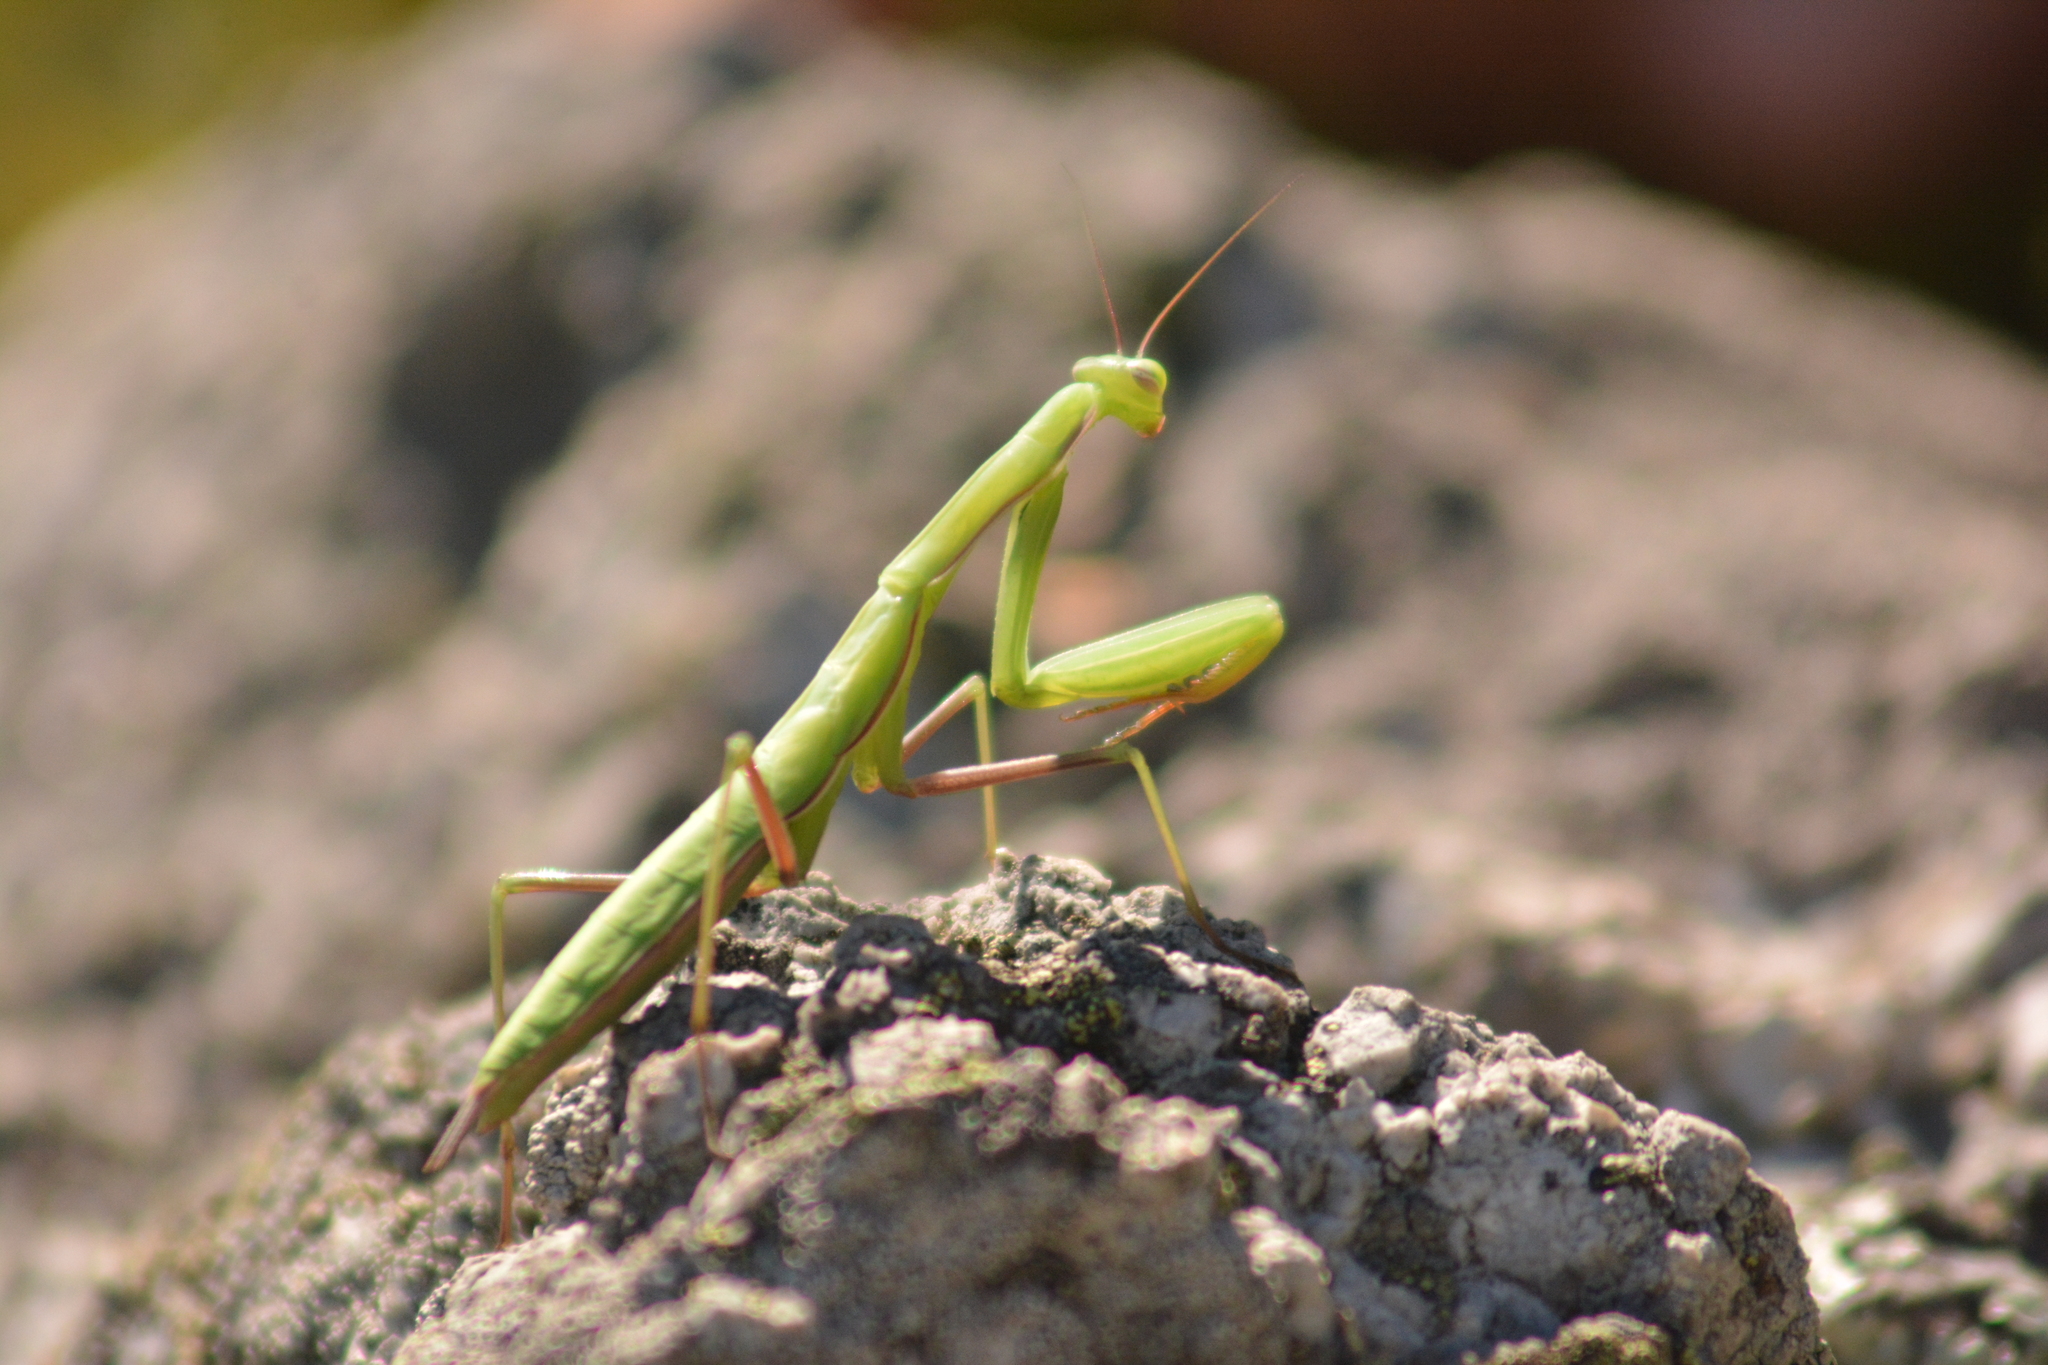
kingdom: Animalia
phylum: Arthropoda
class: Insecta
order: Mantodea
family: Mantidae
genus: Mantis
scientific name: Mantis religiosa
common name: Praying mantis
